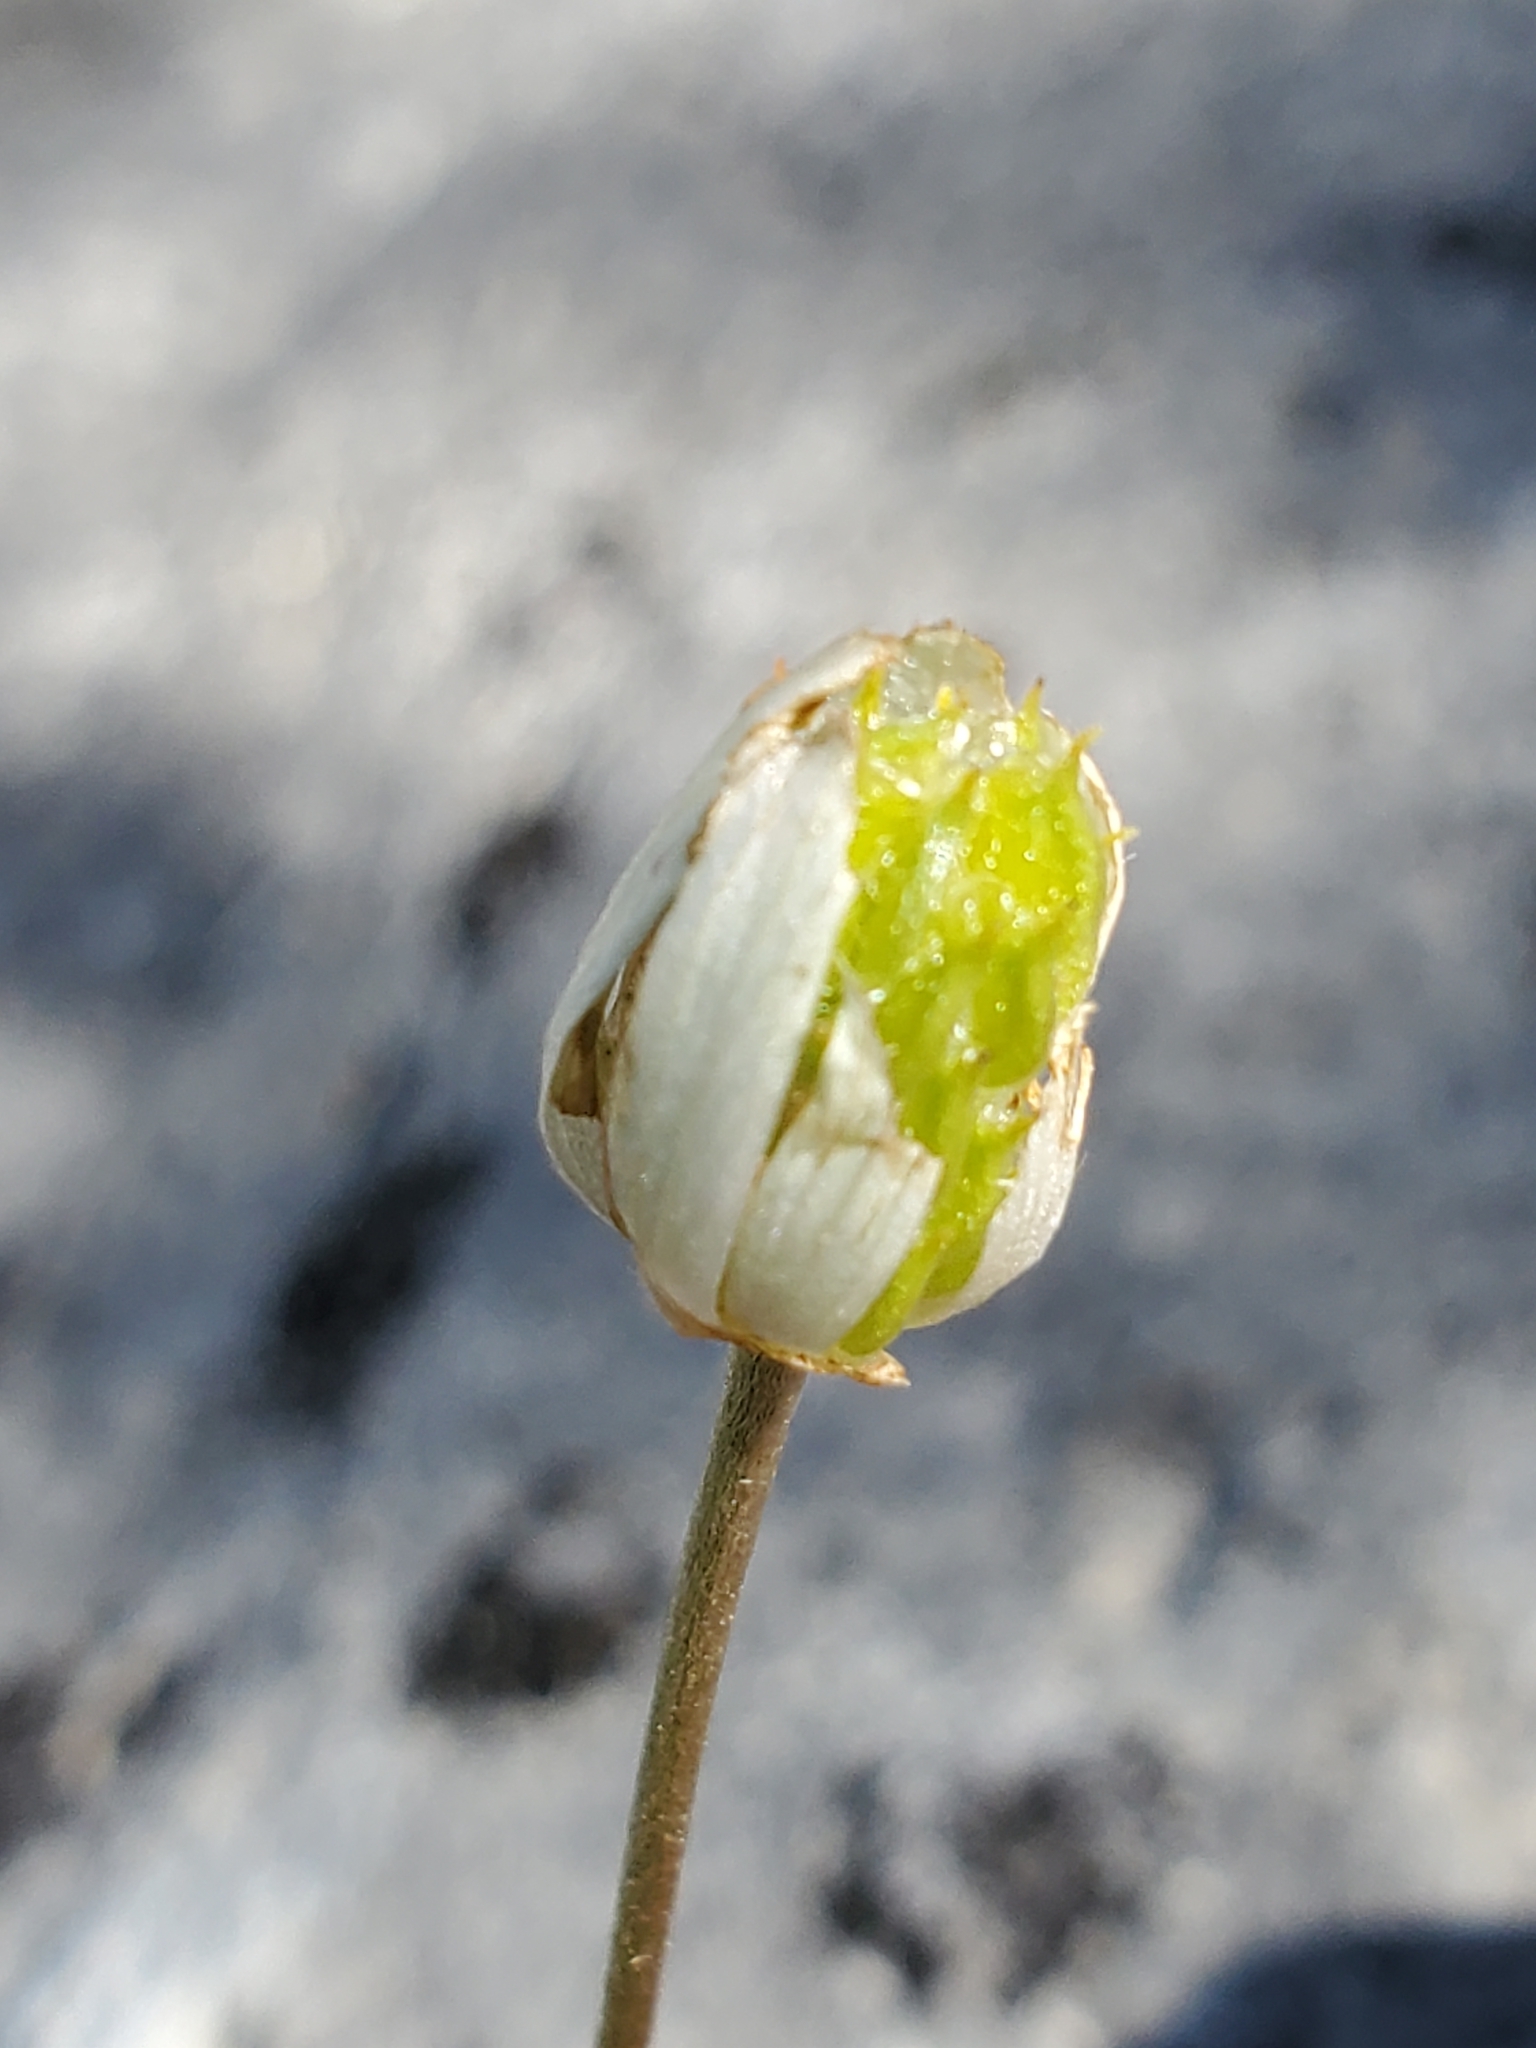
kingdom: Plantae
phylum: Tracheophyta
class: Magnoliopsida
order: Ranunculales
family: Ranunculaceae
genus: Anemone
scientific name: Anemone edwardsiana
